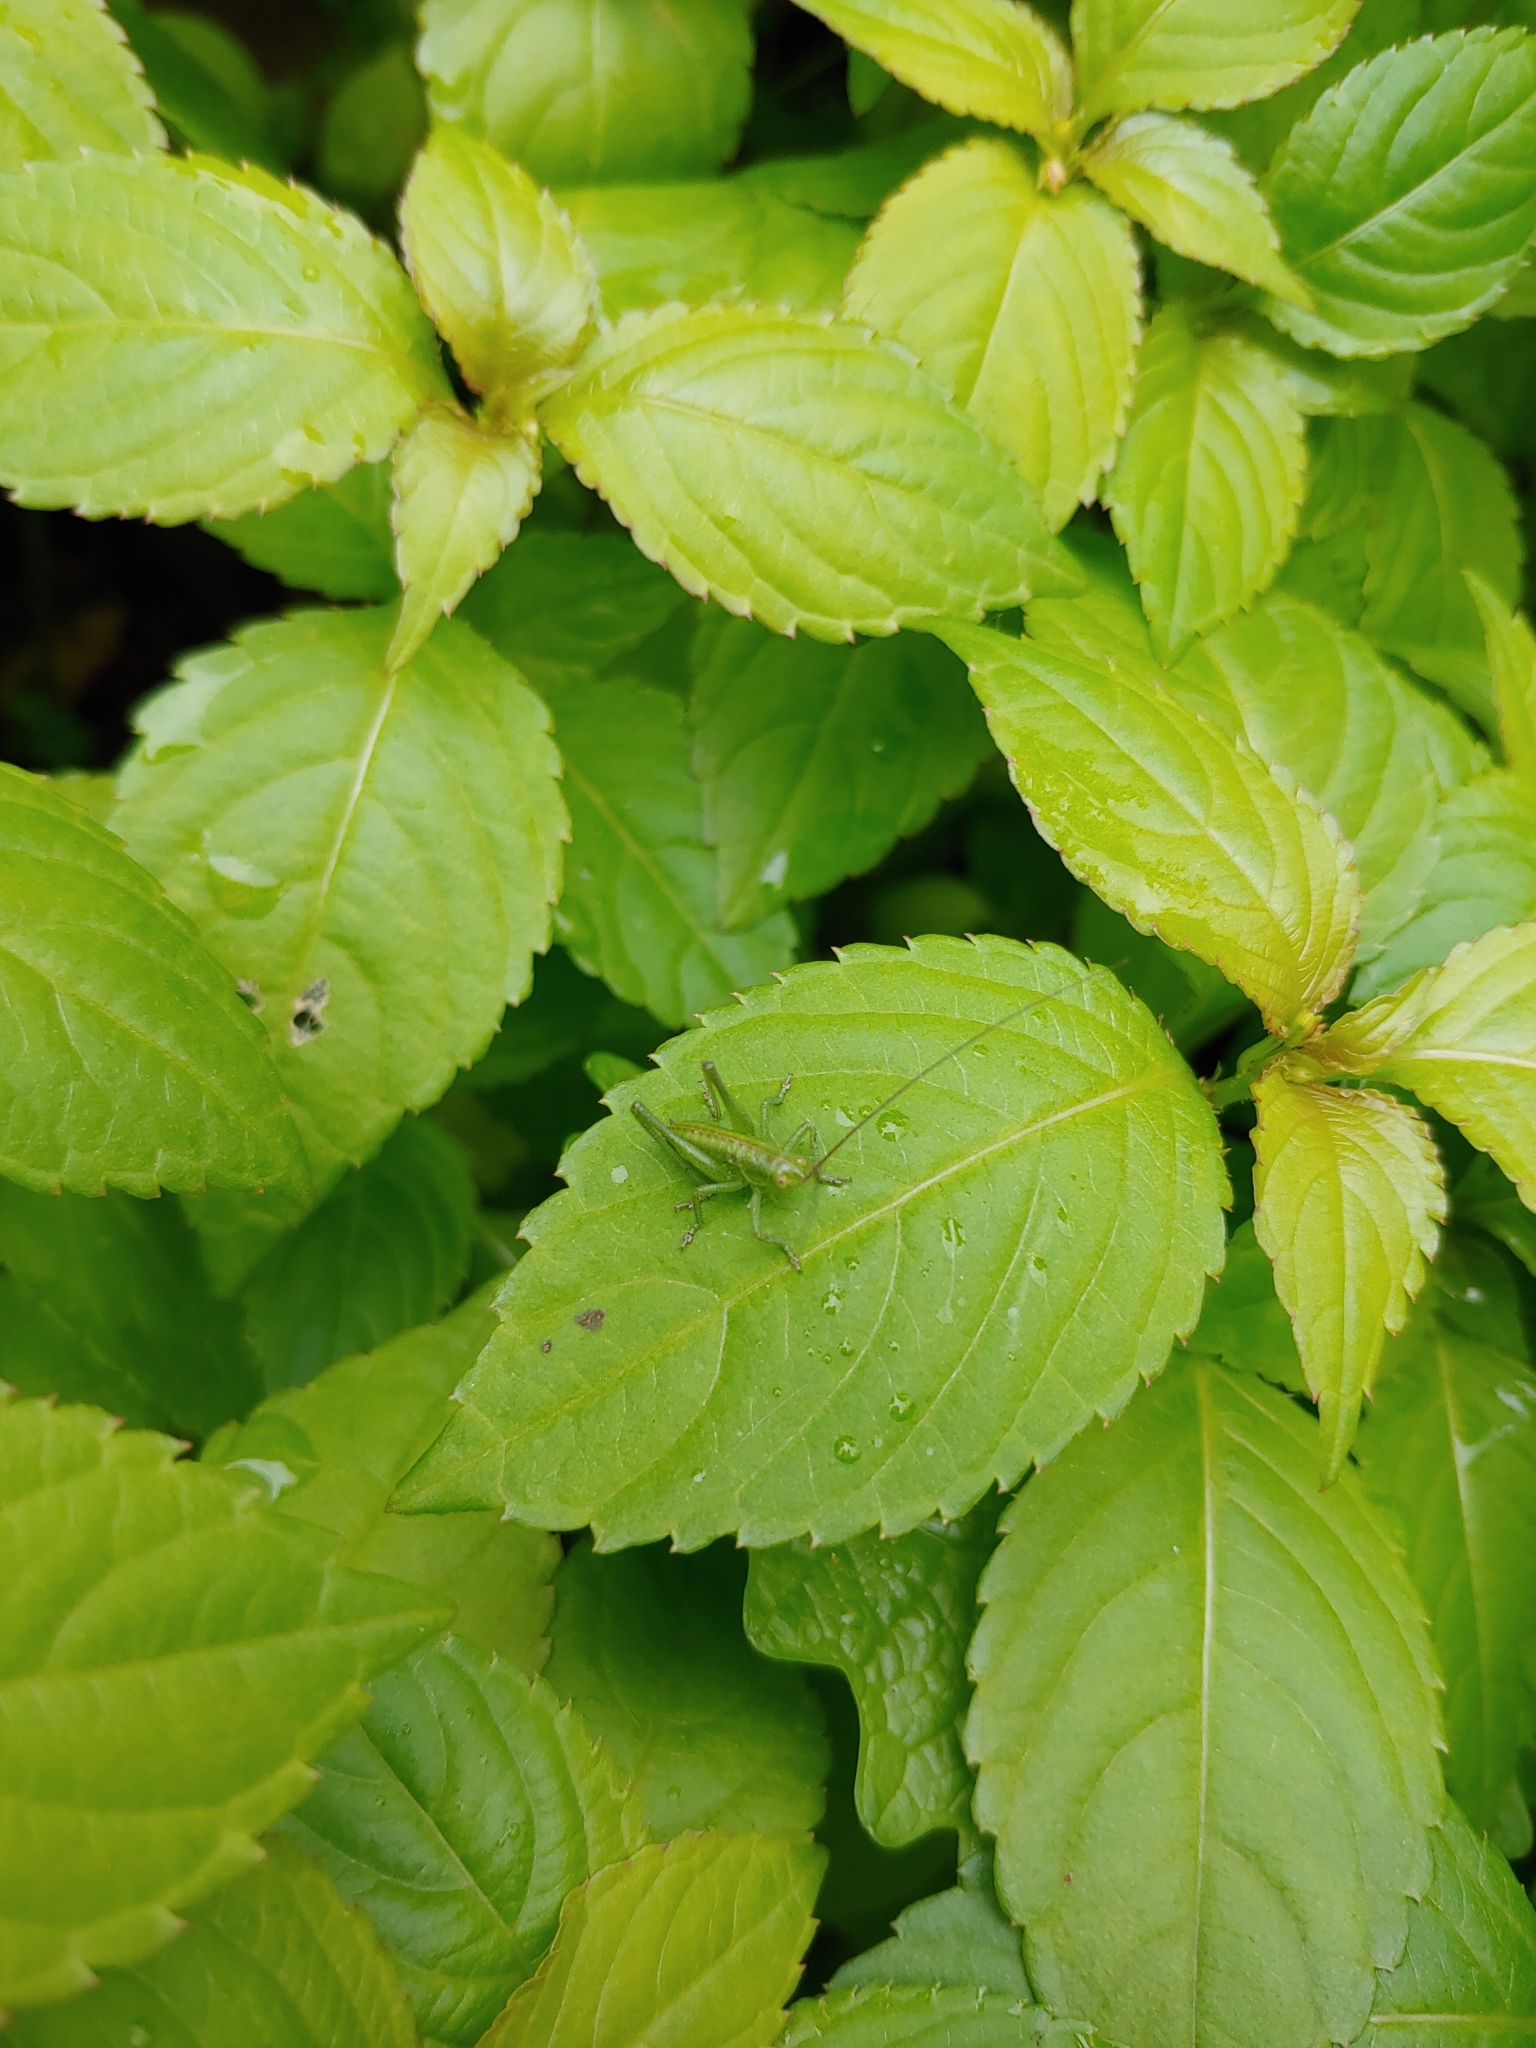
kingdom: Animalia
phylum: Arthropoda
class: Insecta
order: Orthoptera
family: Tettigoniidae
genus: Tettigonia
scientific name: Tettigonia viridissima
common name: Great green bush-cricket
